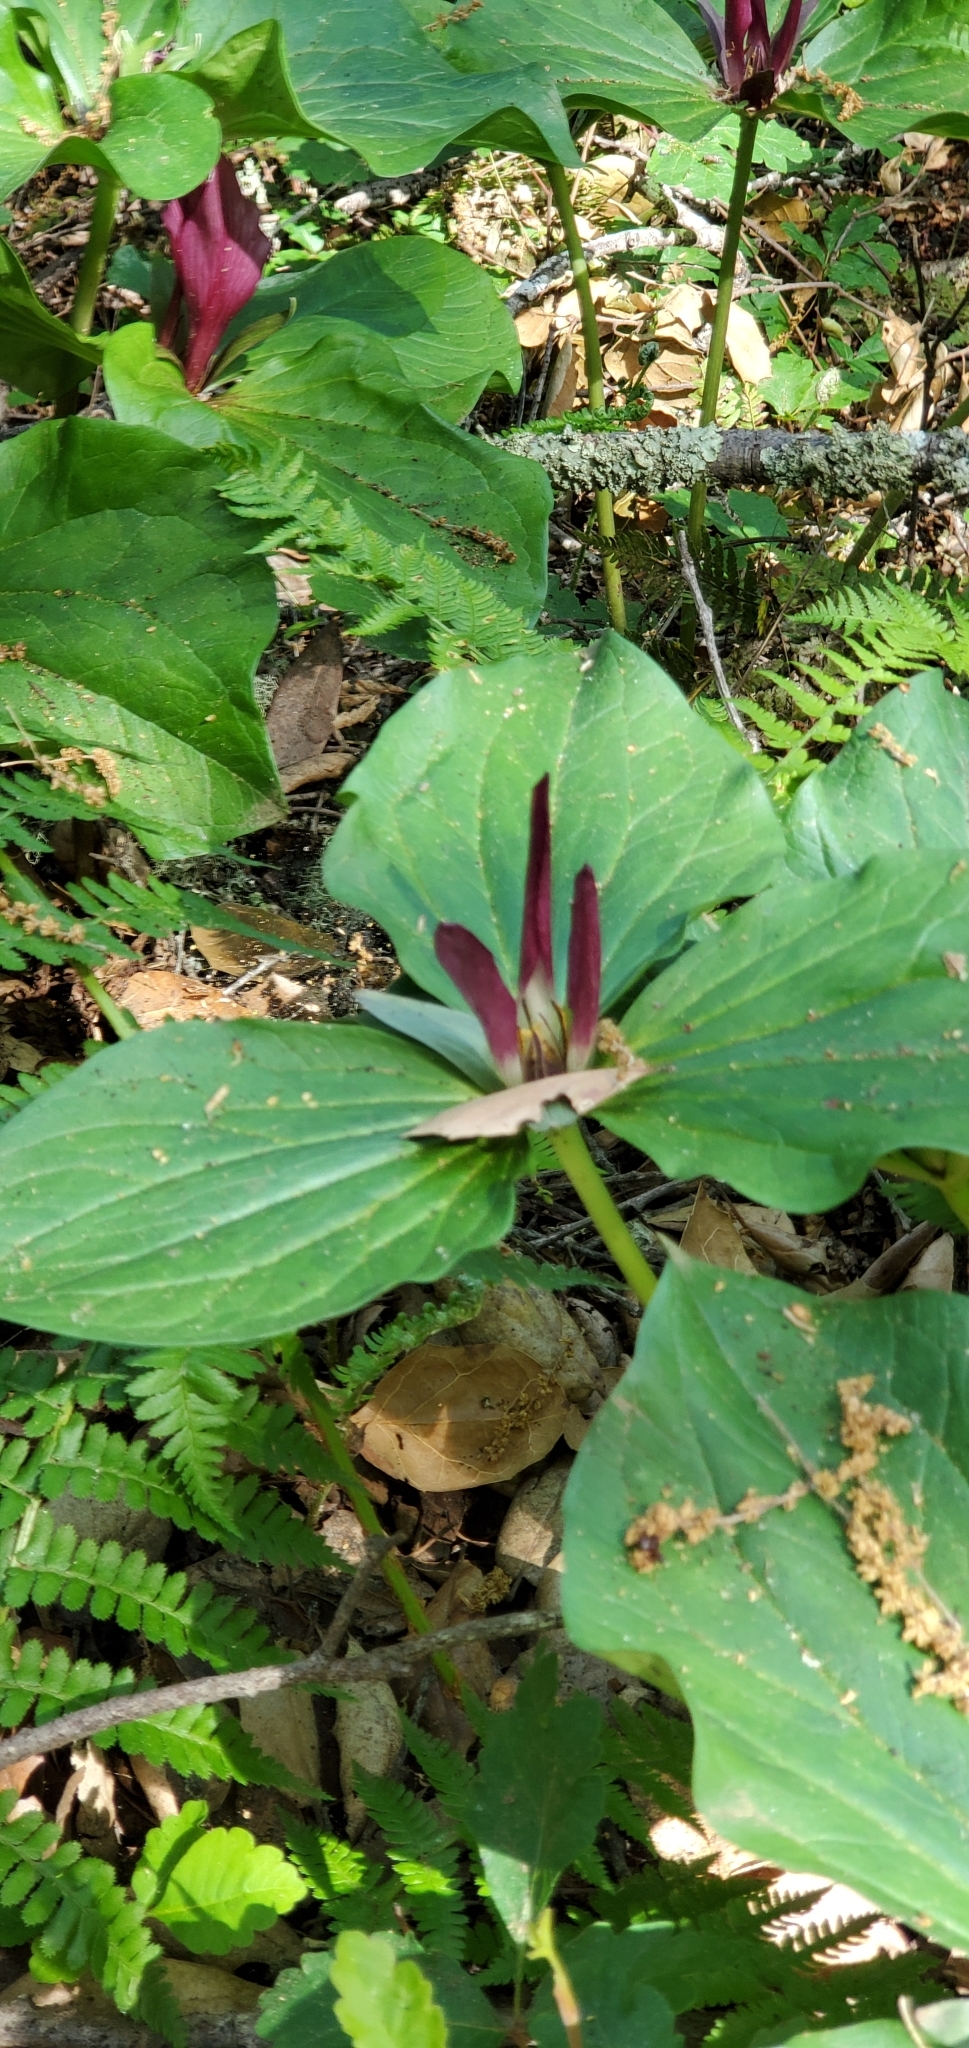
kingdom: Plantae
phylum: Tracheophyta
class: Liliopsida
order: Liliales
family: Melanthiaceae
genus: Trillium
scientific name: Trillium chloropetalum
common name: Giant trillium
